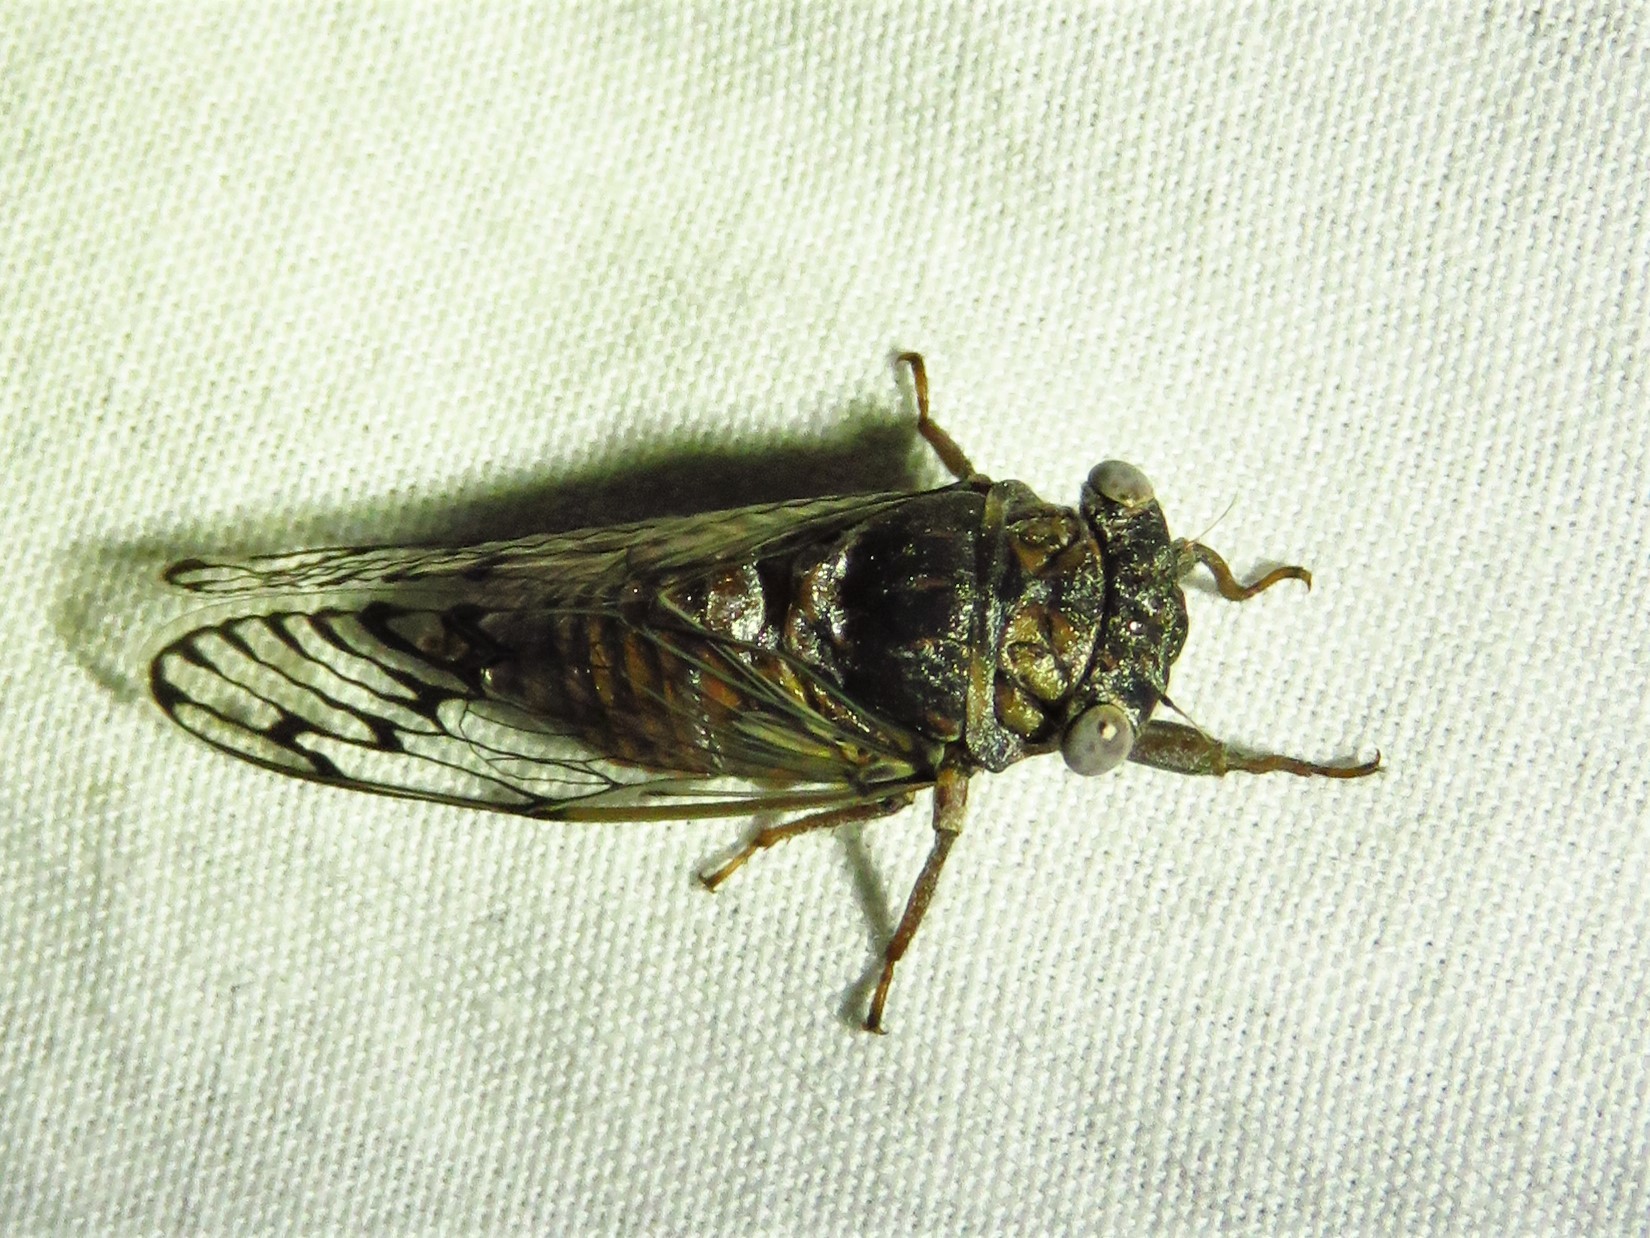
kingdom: Animalia
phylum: Arthropoda
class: Insecta
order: Hemiptera
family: Cicadidae
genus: Pacarina
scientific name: Pacarina puella
